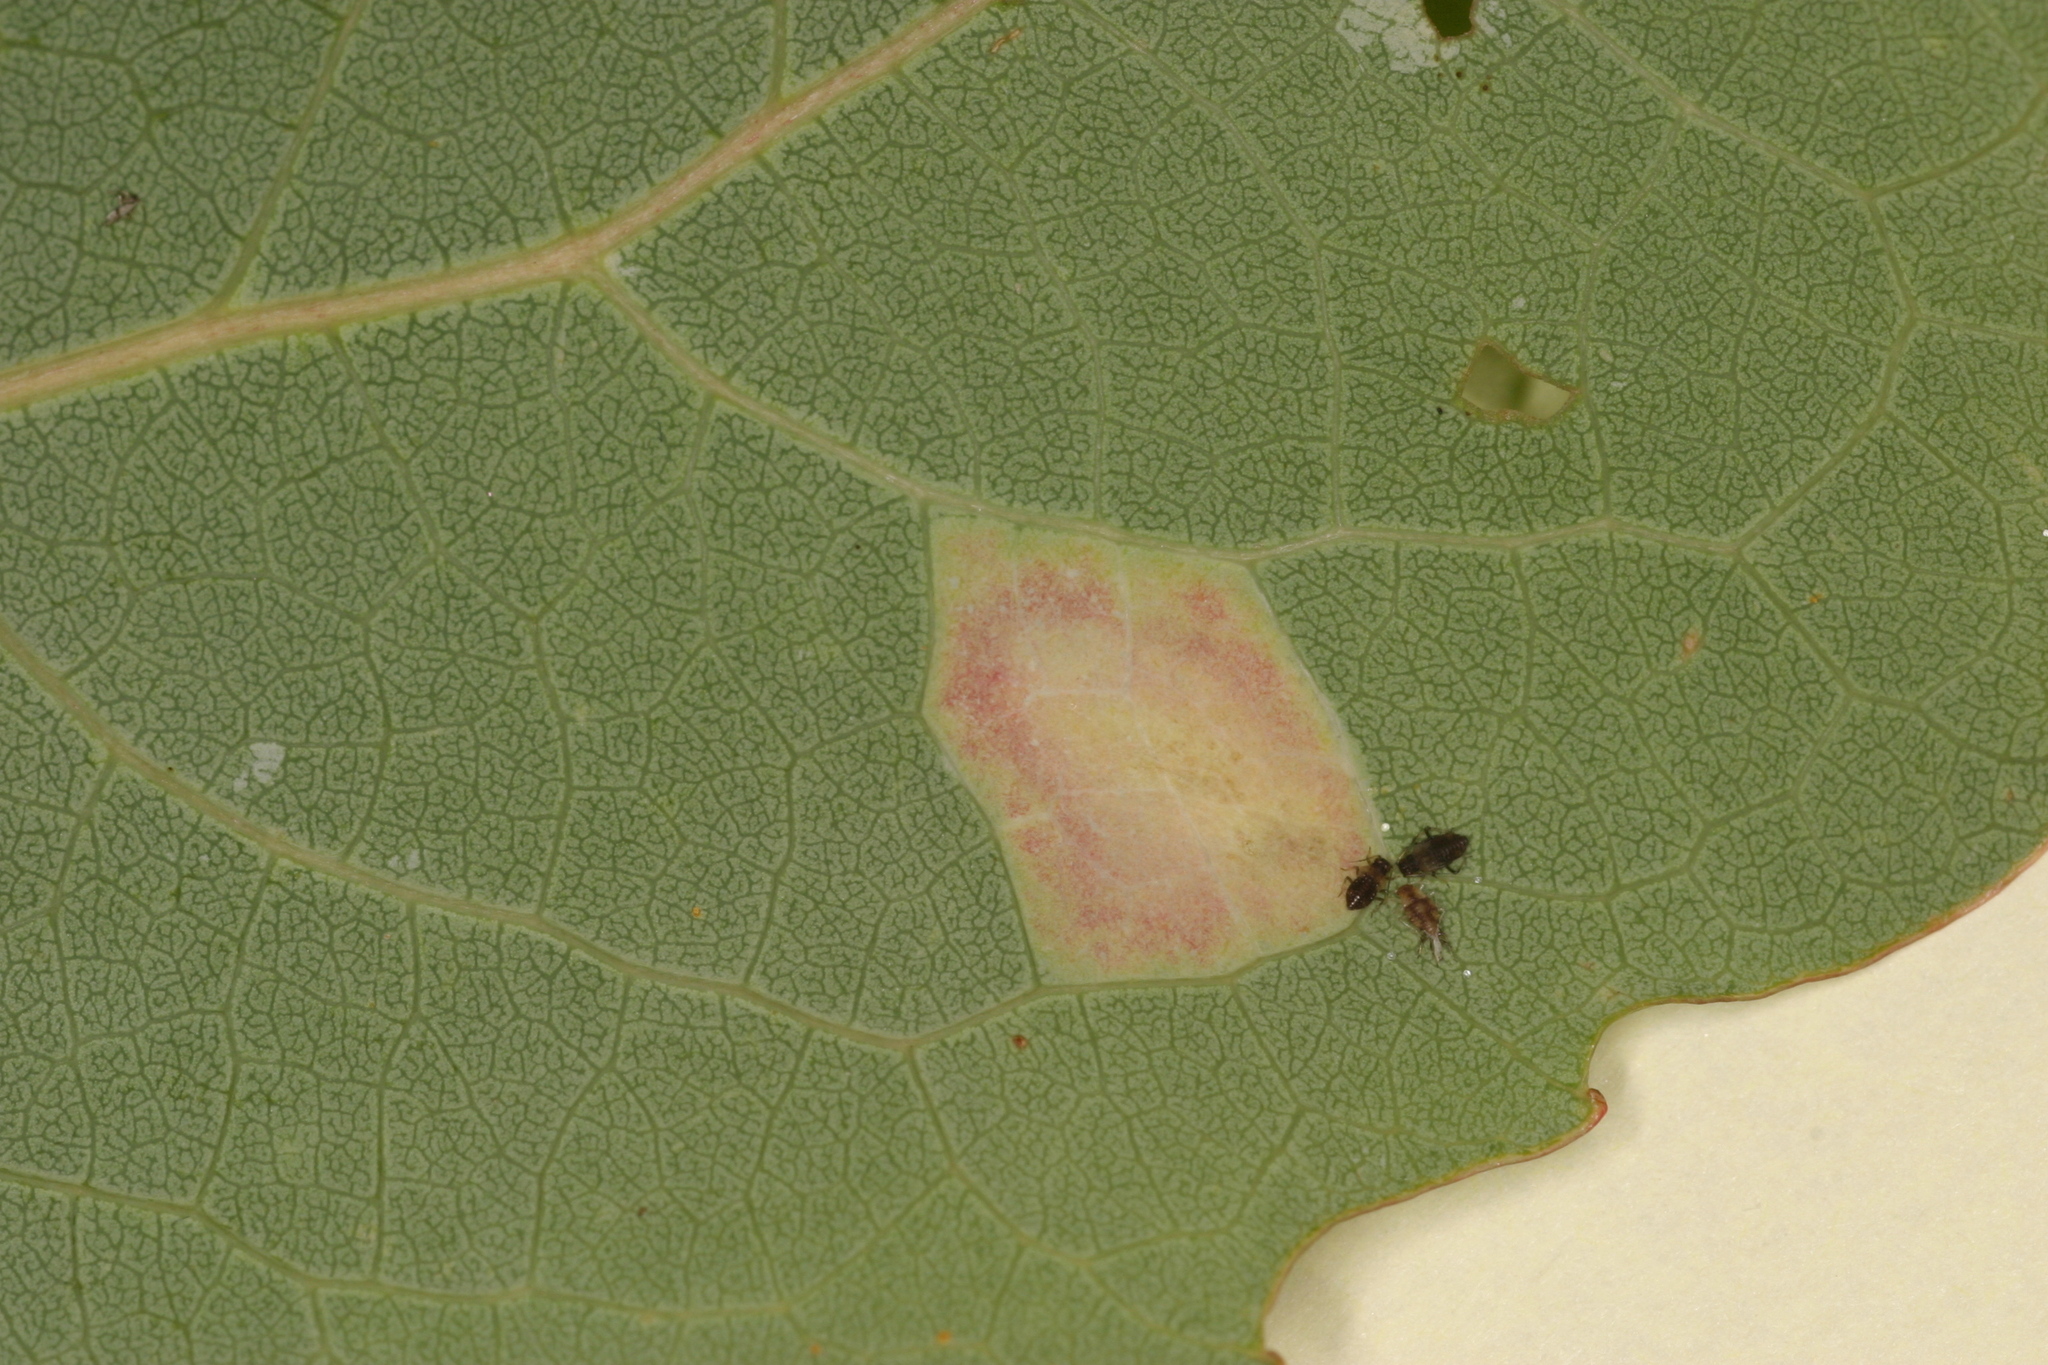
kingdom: Animalia
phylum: Arthropoda
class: Insecta
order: Lepidoptera
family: Gracillariidae
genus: Phyllonorycter
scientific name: Phyllonorycter sagitella
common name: Scarce aspen midget
